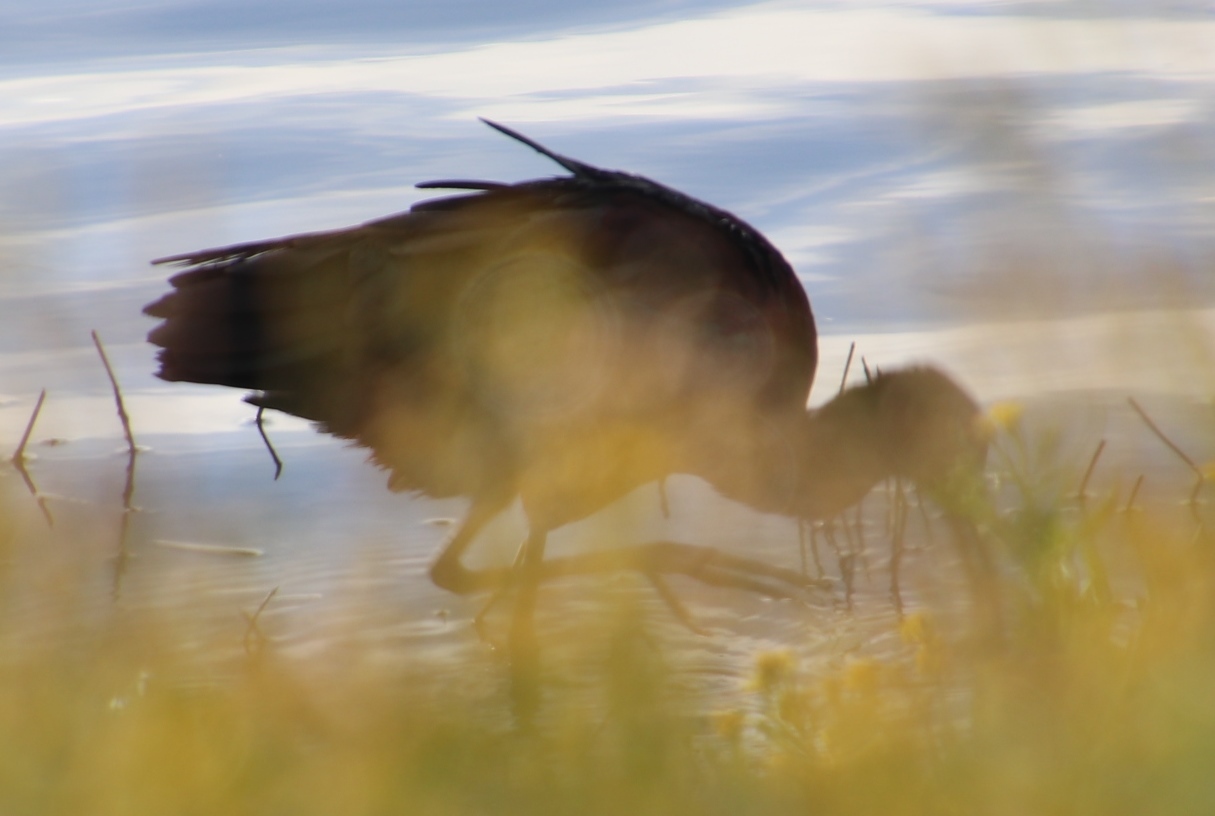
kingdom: Animalia
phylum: Chordata
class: Aves
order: Pelecaniformes
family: Threskiornithidae
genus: Plegadis
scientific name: Plegadis falcinellus
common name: Glossy ibis
